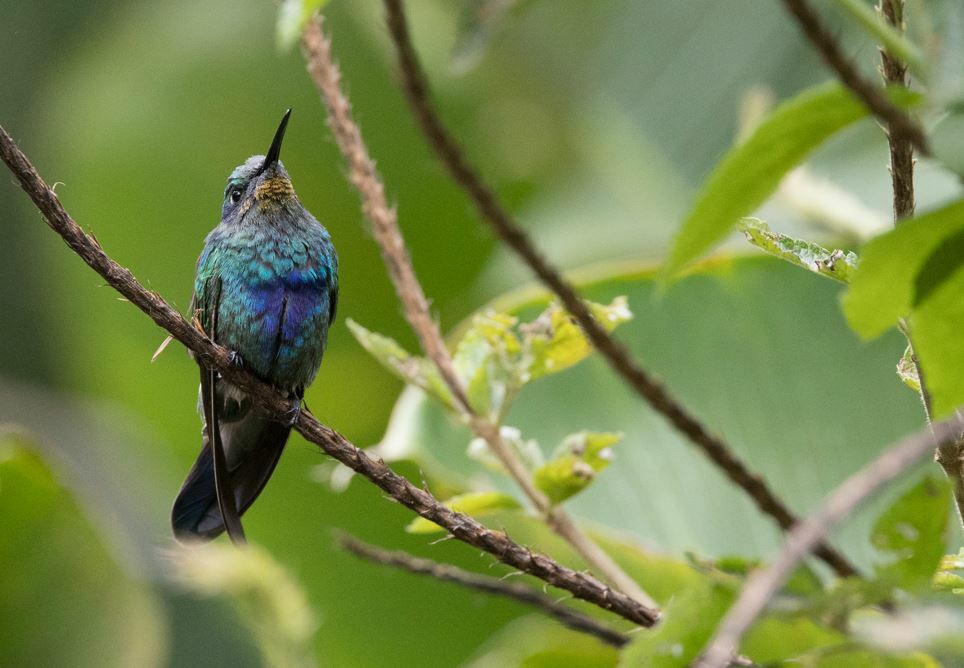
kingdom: Animalia
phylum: Chordata
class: Aves
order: Apodiformes
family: Trochilidae
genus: Colibri
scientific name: Colibri coruscans
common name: Sparkling violetear
